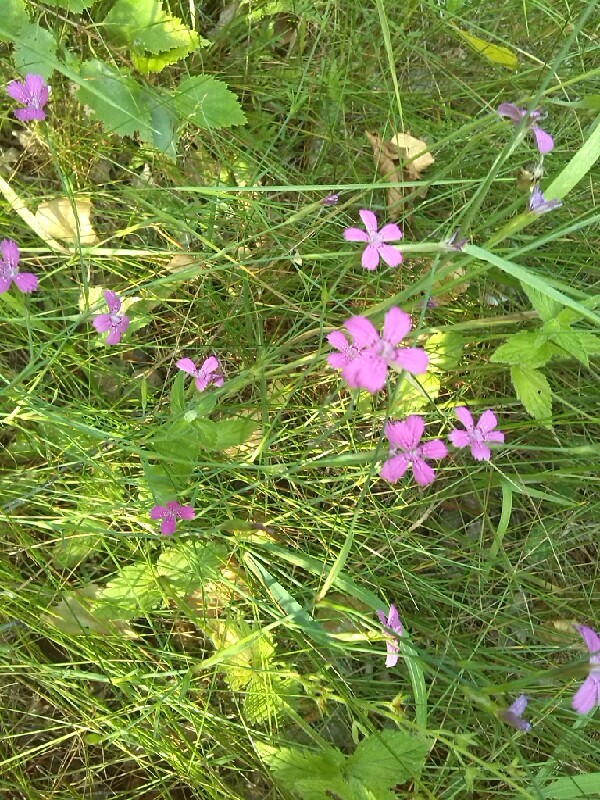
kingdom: Plantae
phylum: Tracheophyta
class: Magnoliopsida
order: Caryophyllales
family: Caryophyllaceae
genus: Dianthus
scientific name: Dianthus deltoides
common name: Maiden pink
